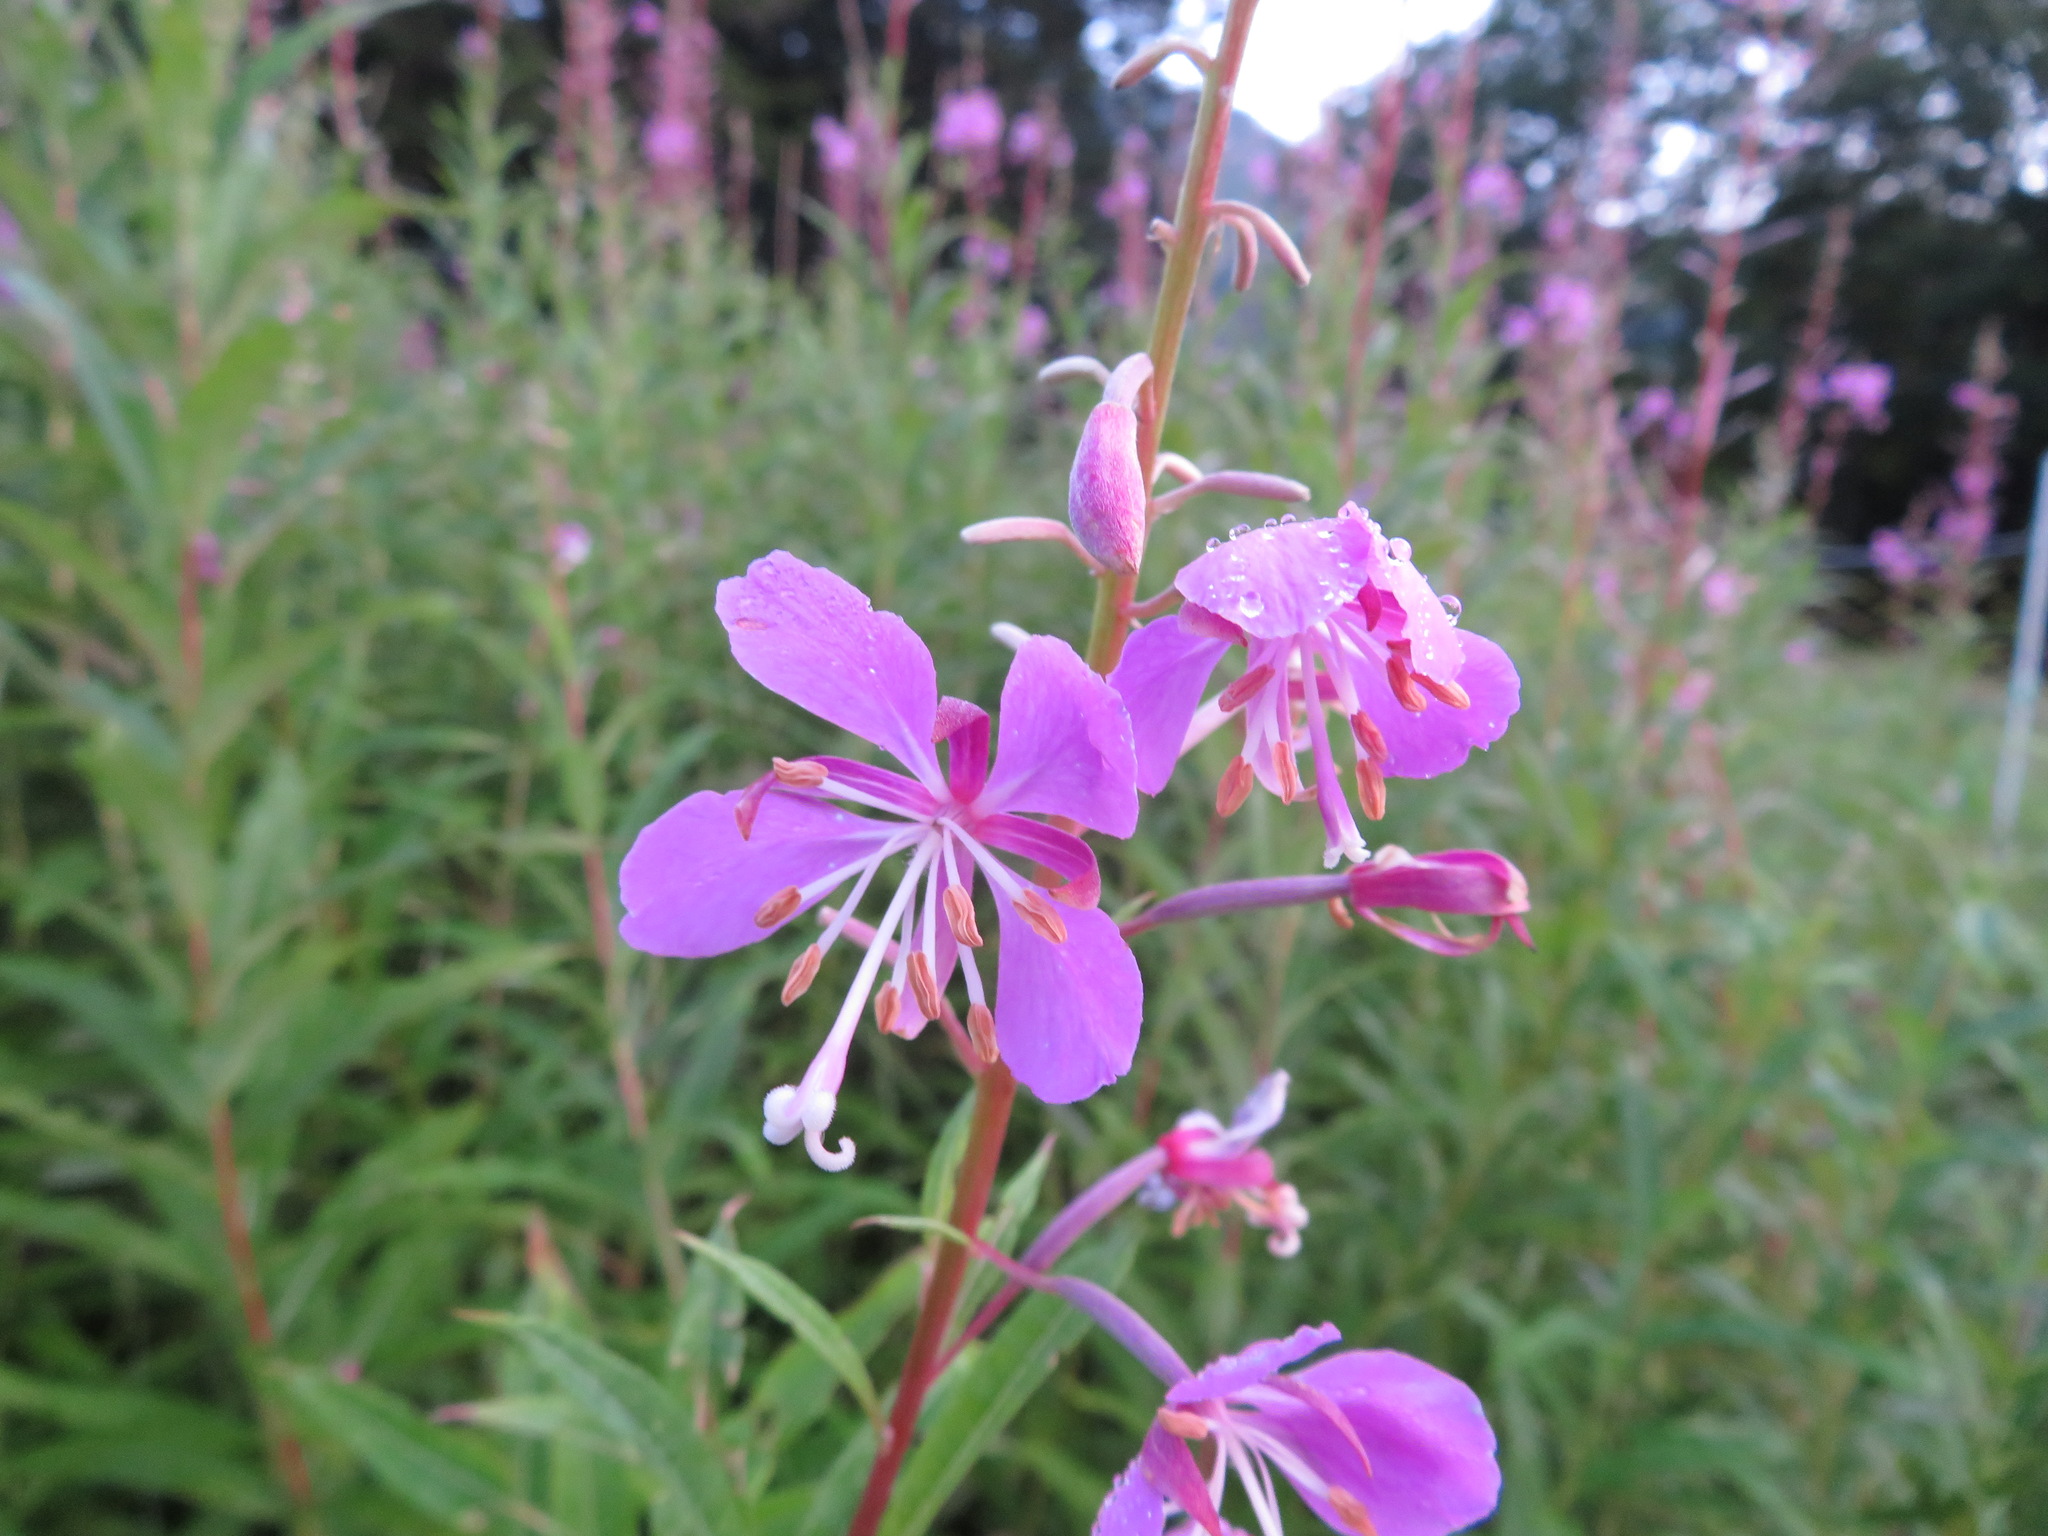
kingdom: Plantae
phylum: Tracheophyta
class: Magnoliopsida
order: Myrtales
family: Onagraceae
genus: Chamaenerion
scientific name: Chamaenerion angustifolium
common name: Fireweed
